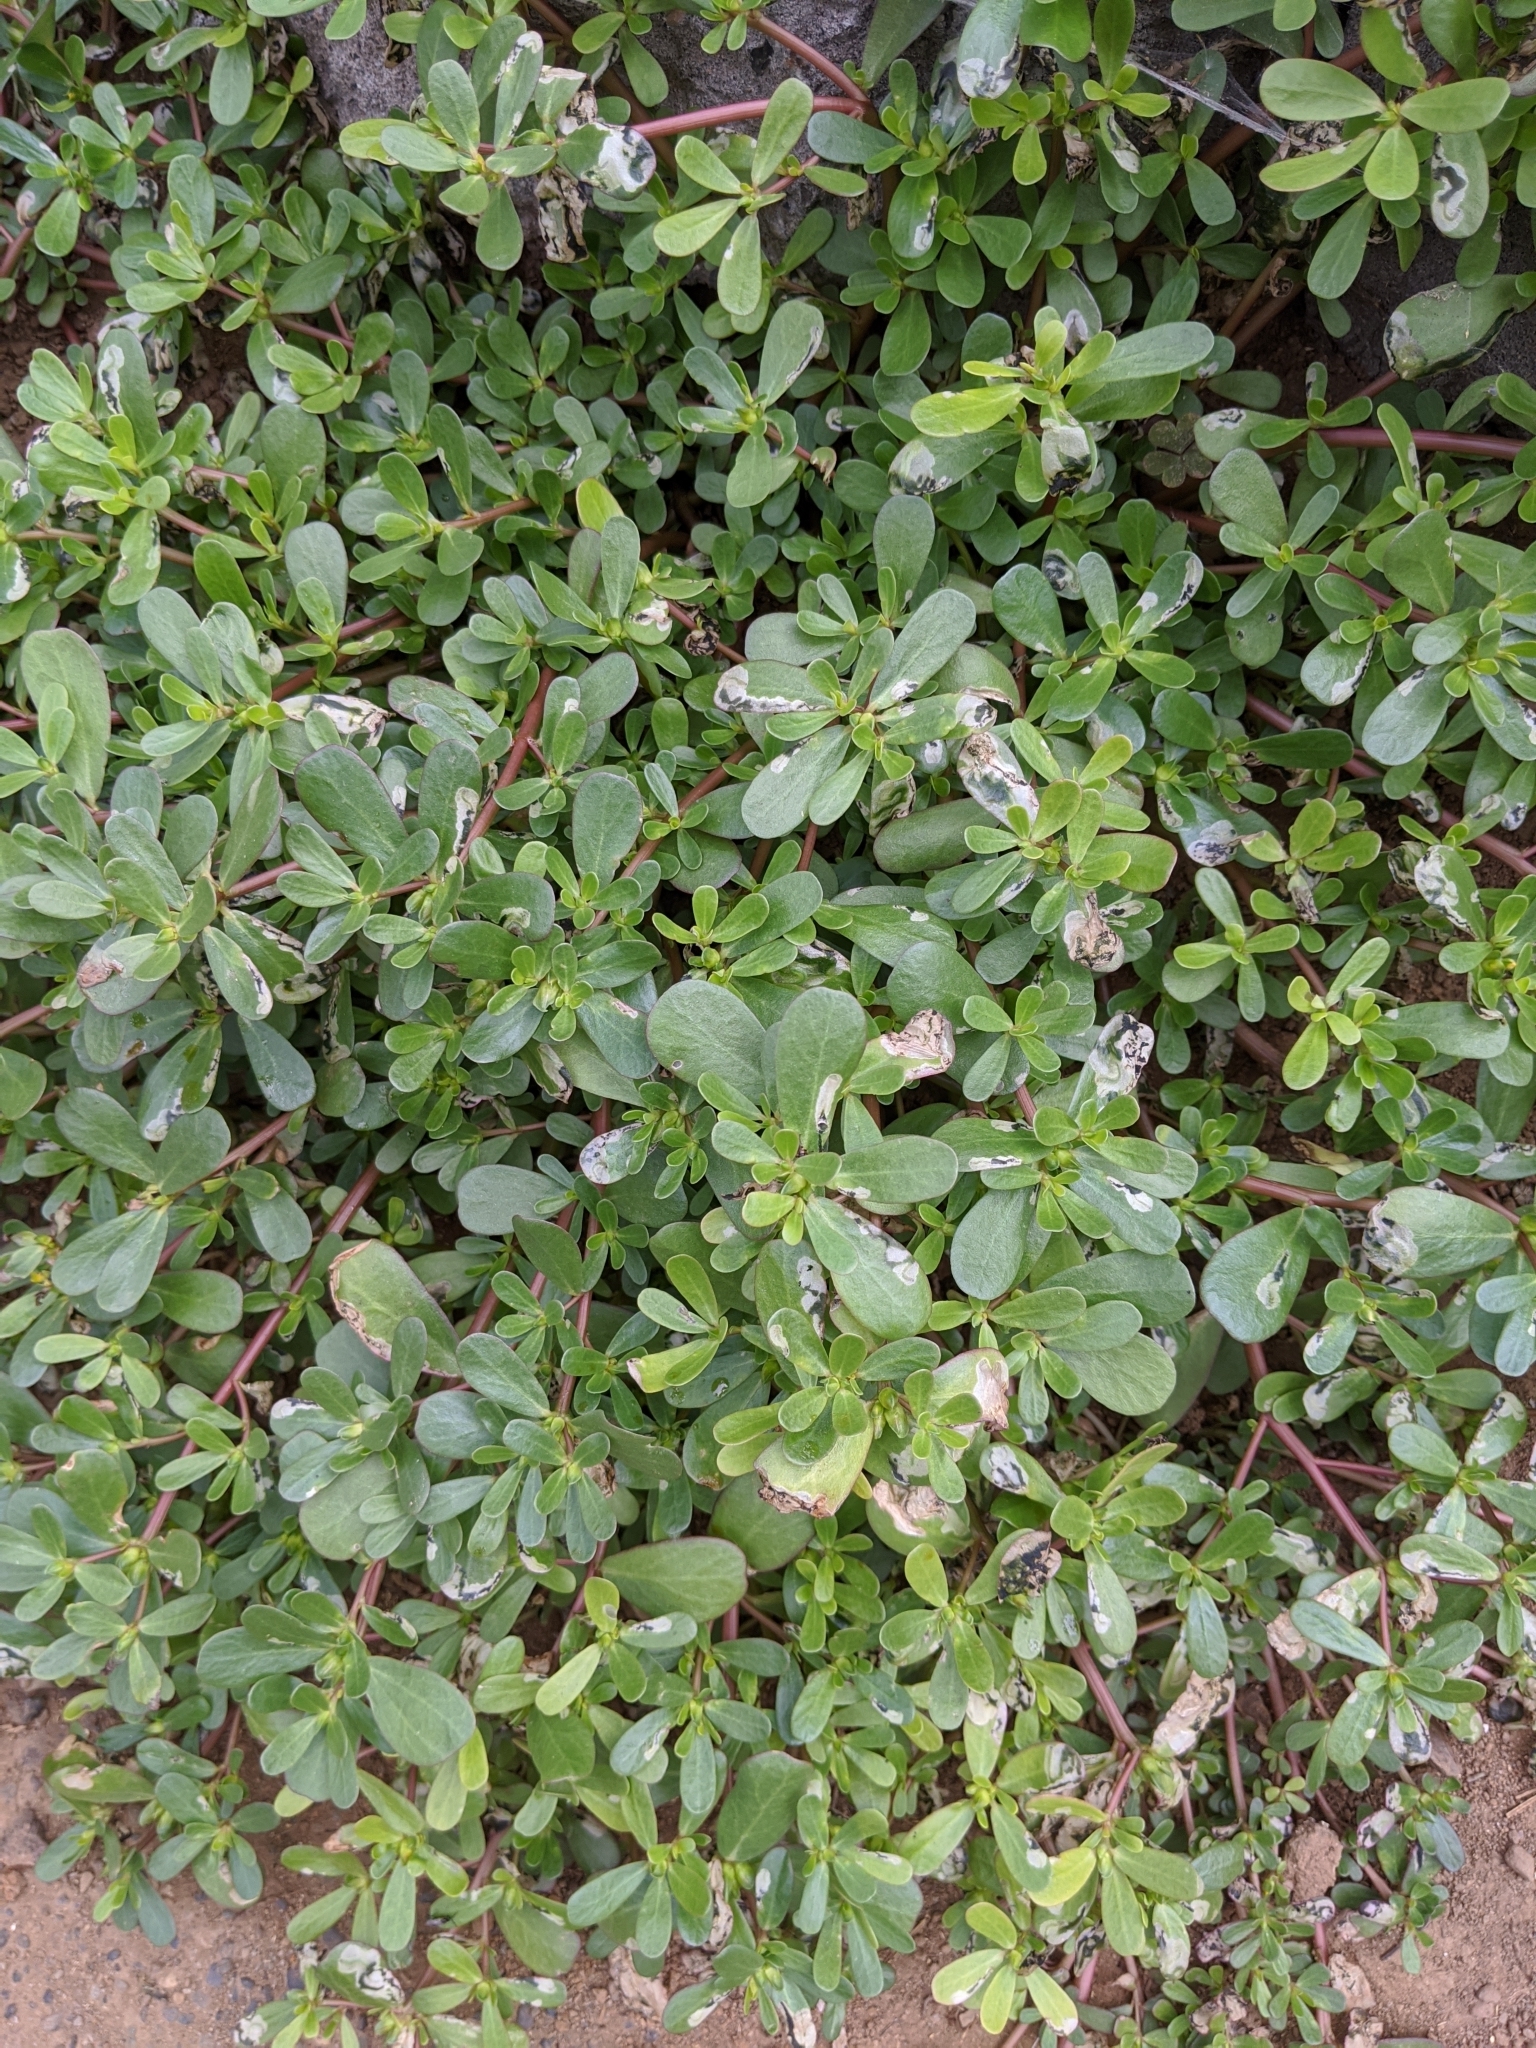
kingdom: Plantae
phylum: Tracheophyta
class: Magnoliopsida
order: Caryophyllales
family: Portulacaceae
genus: Portulaca
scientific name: Portulaca oleracea
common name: Common purslane
